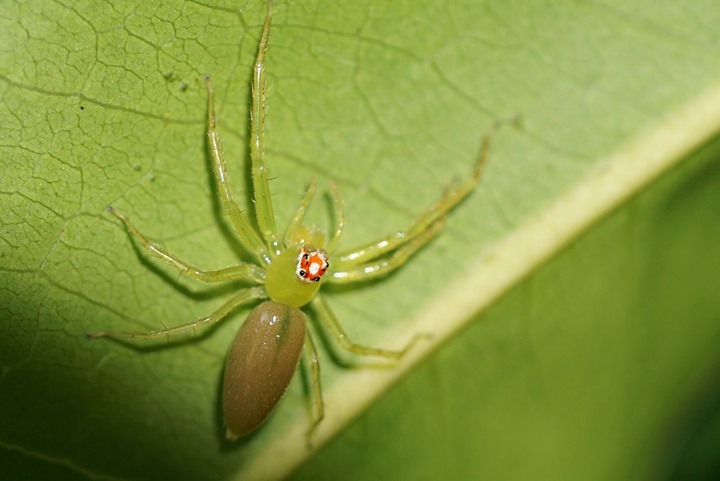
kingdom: Animalia
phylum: Arthropoda
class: Arachnida
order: Araneae
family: Salticidae
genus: Lyssomanes
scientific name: Lyssomanes viridis
